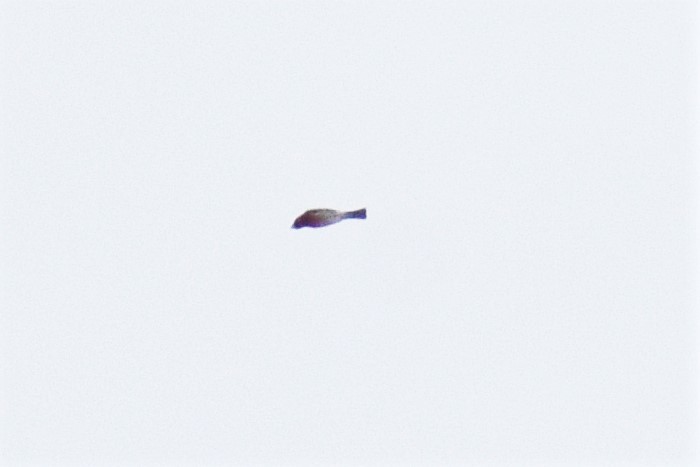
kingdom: Animalia
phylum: Chordata
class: Aves
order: Passeriformes
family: Fringillidae
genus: Haemorhous
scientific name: Haemorhous mexicanus
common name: House finch
